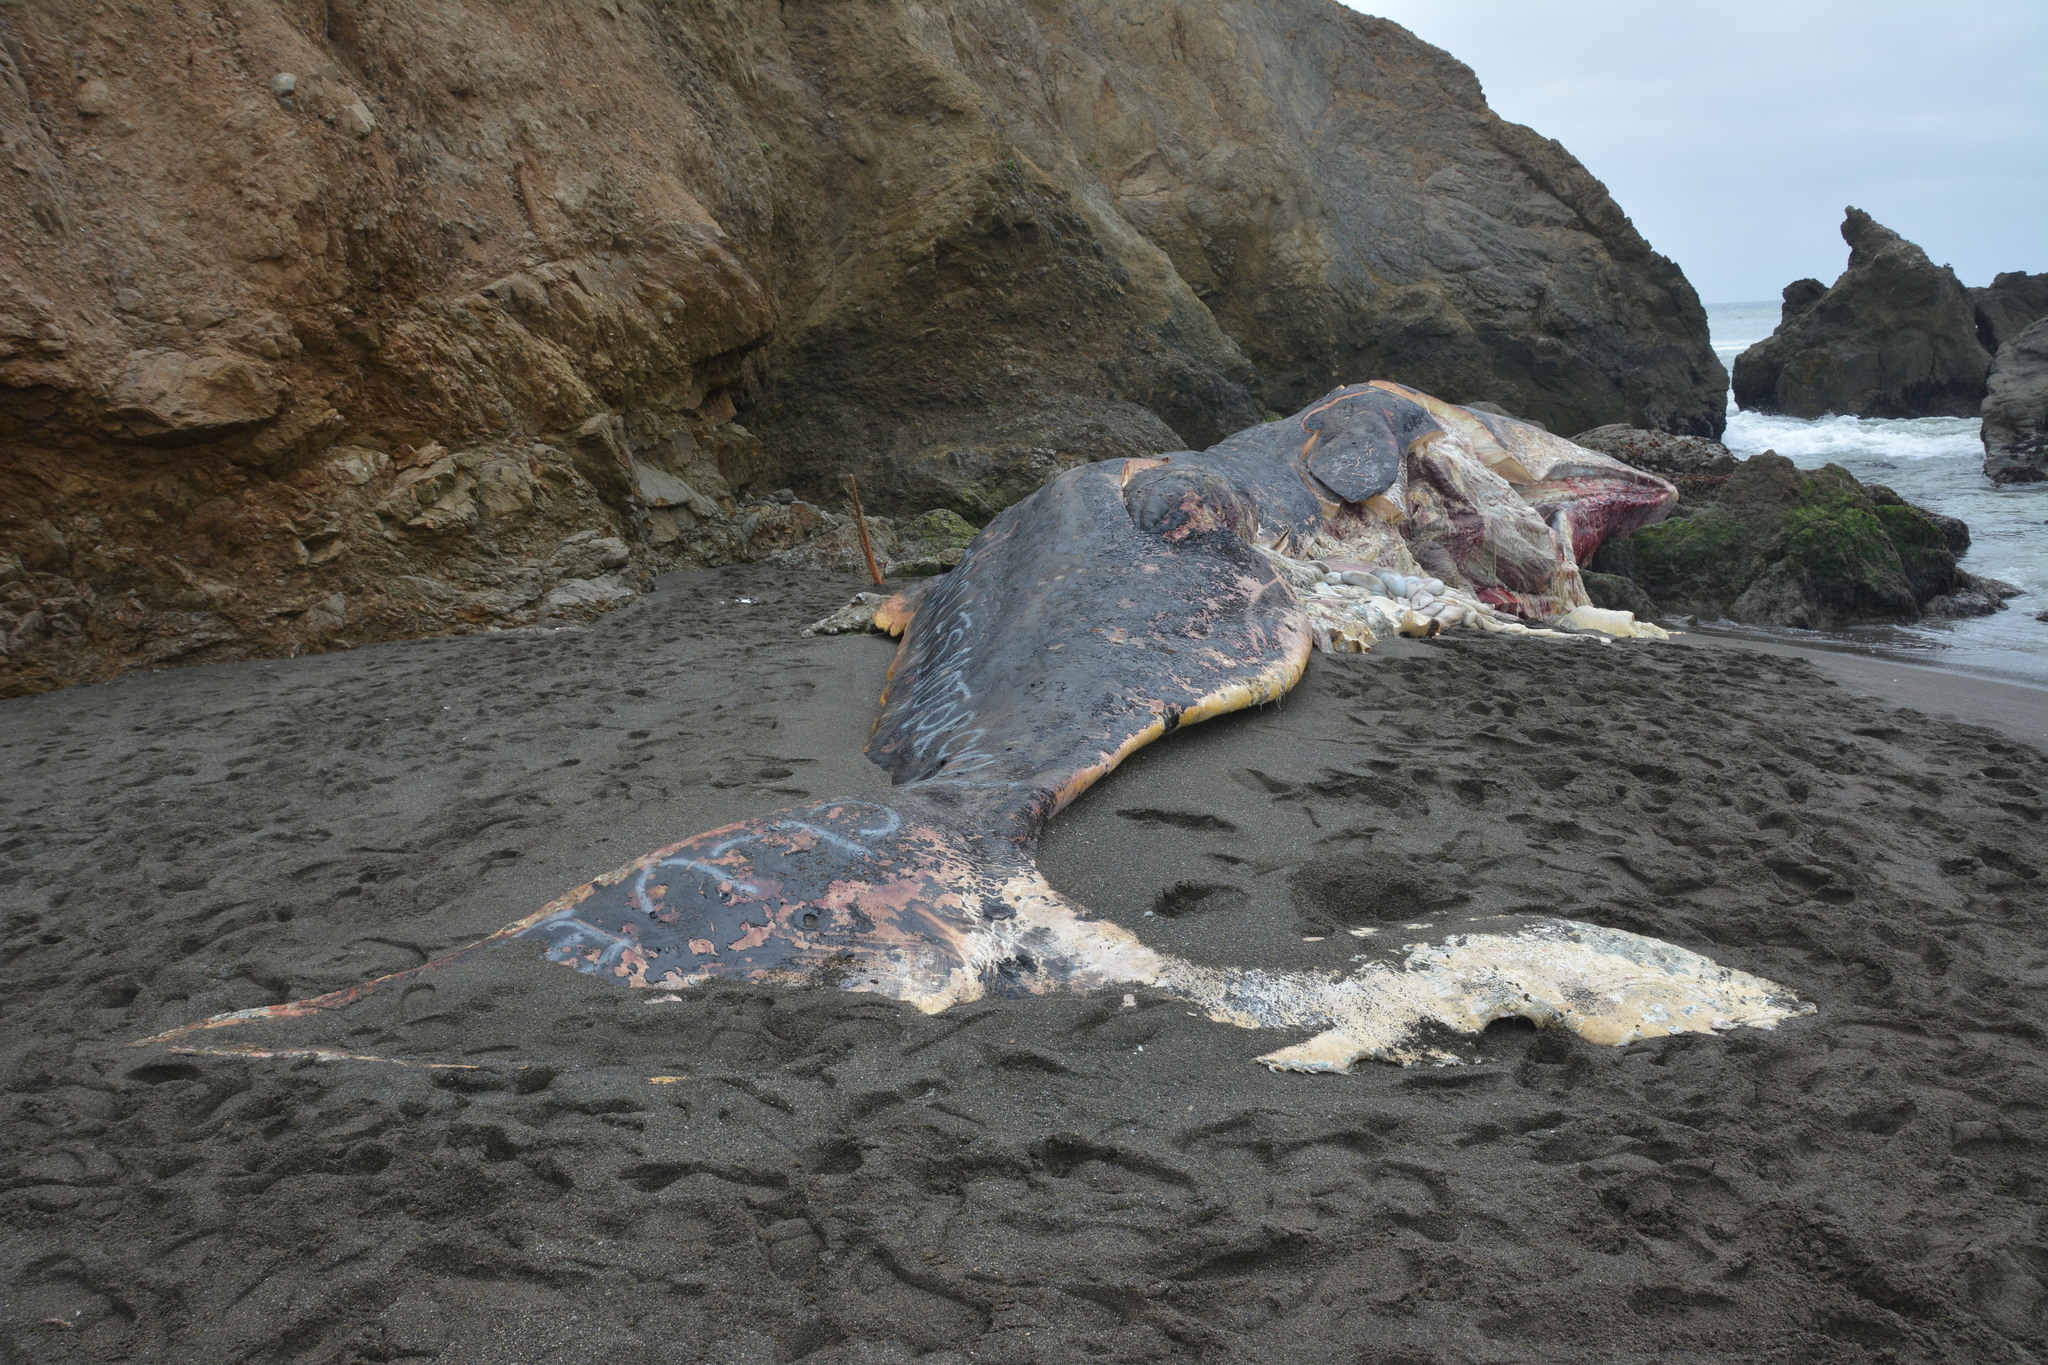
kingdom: Animalia
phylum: Chordata
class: Mammalia
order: Cetacea
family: Physeteridae
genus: Physeter
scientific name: Physeter macrocephalus
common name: Sperm whale
